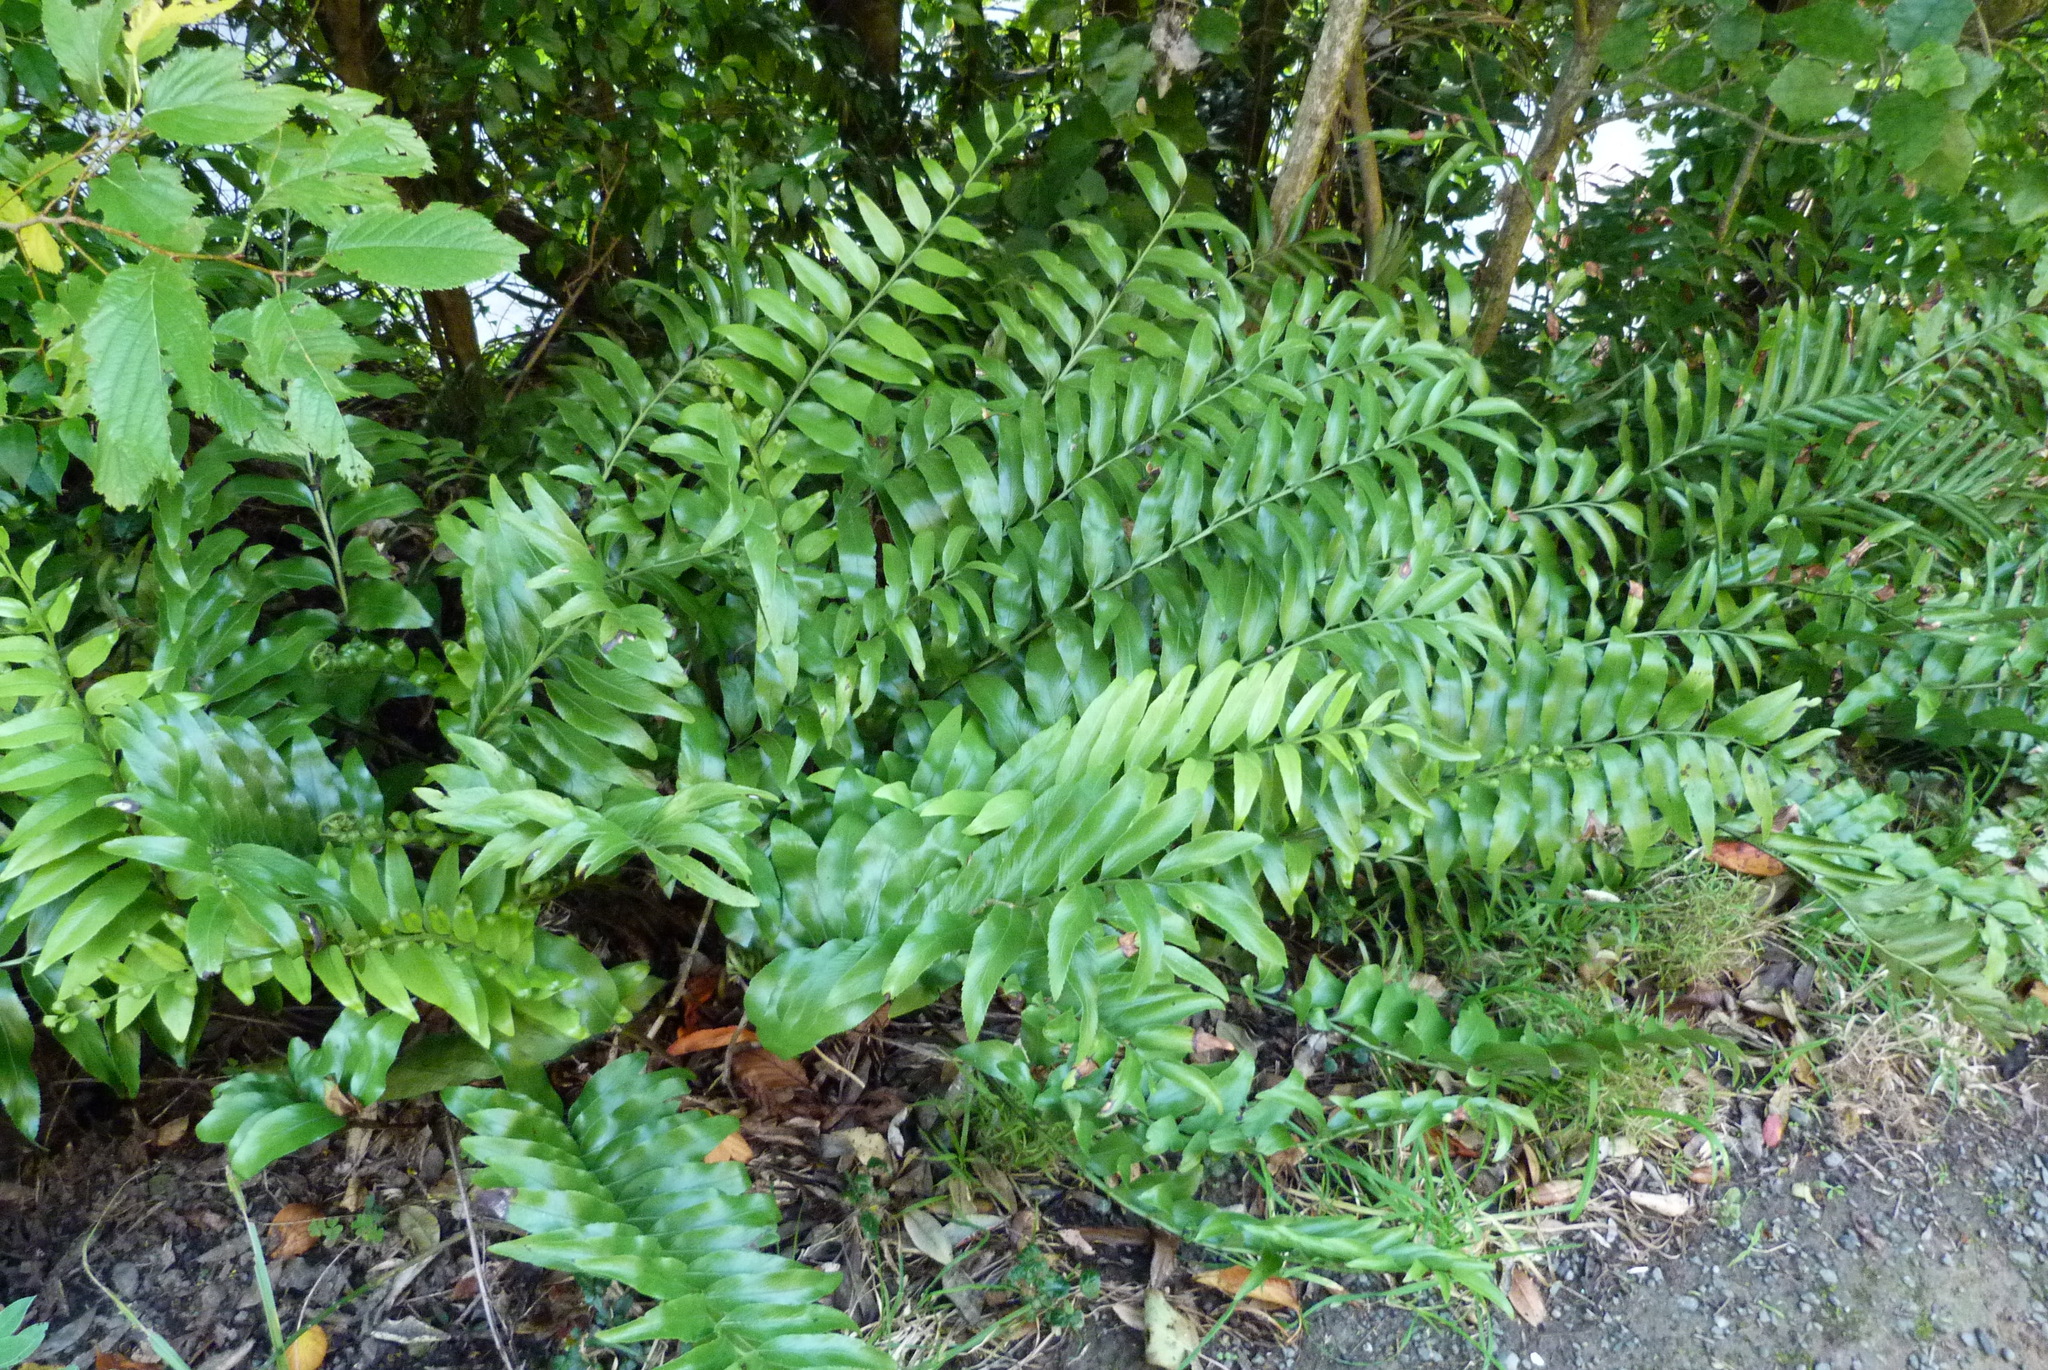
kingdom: Plantae
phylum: Tracheophyta
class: Polypodiopsida
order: Polypodiales
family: Aspleniaceae
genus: Asplenium
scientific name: Asplenium oblongifolium
